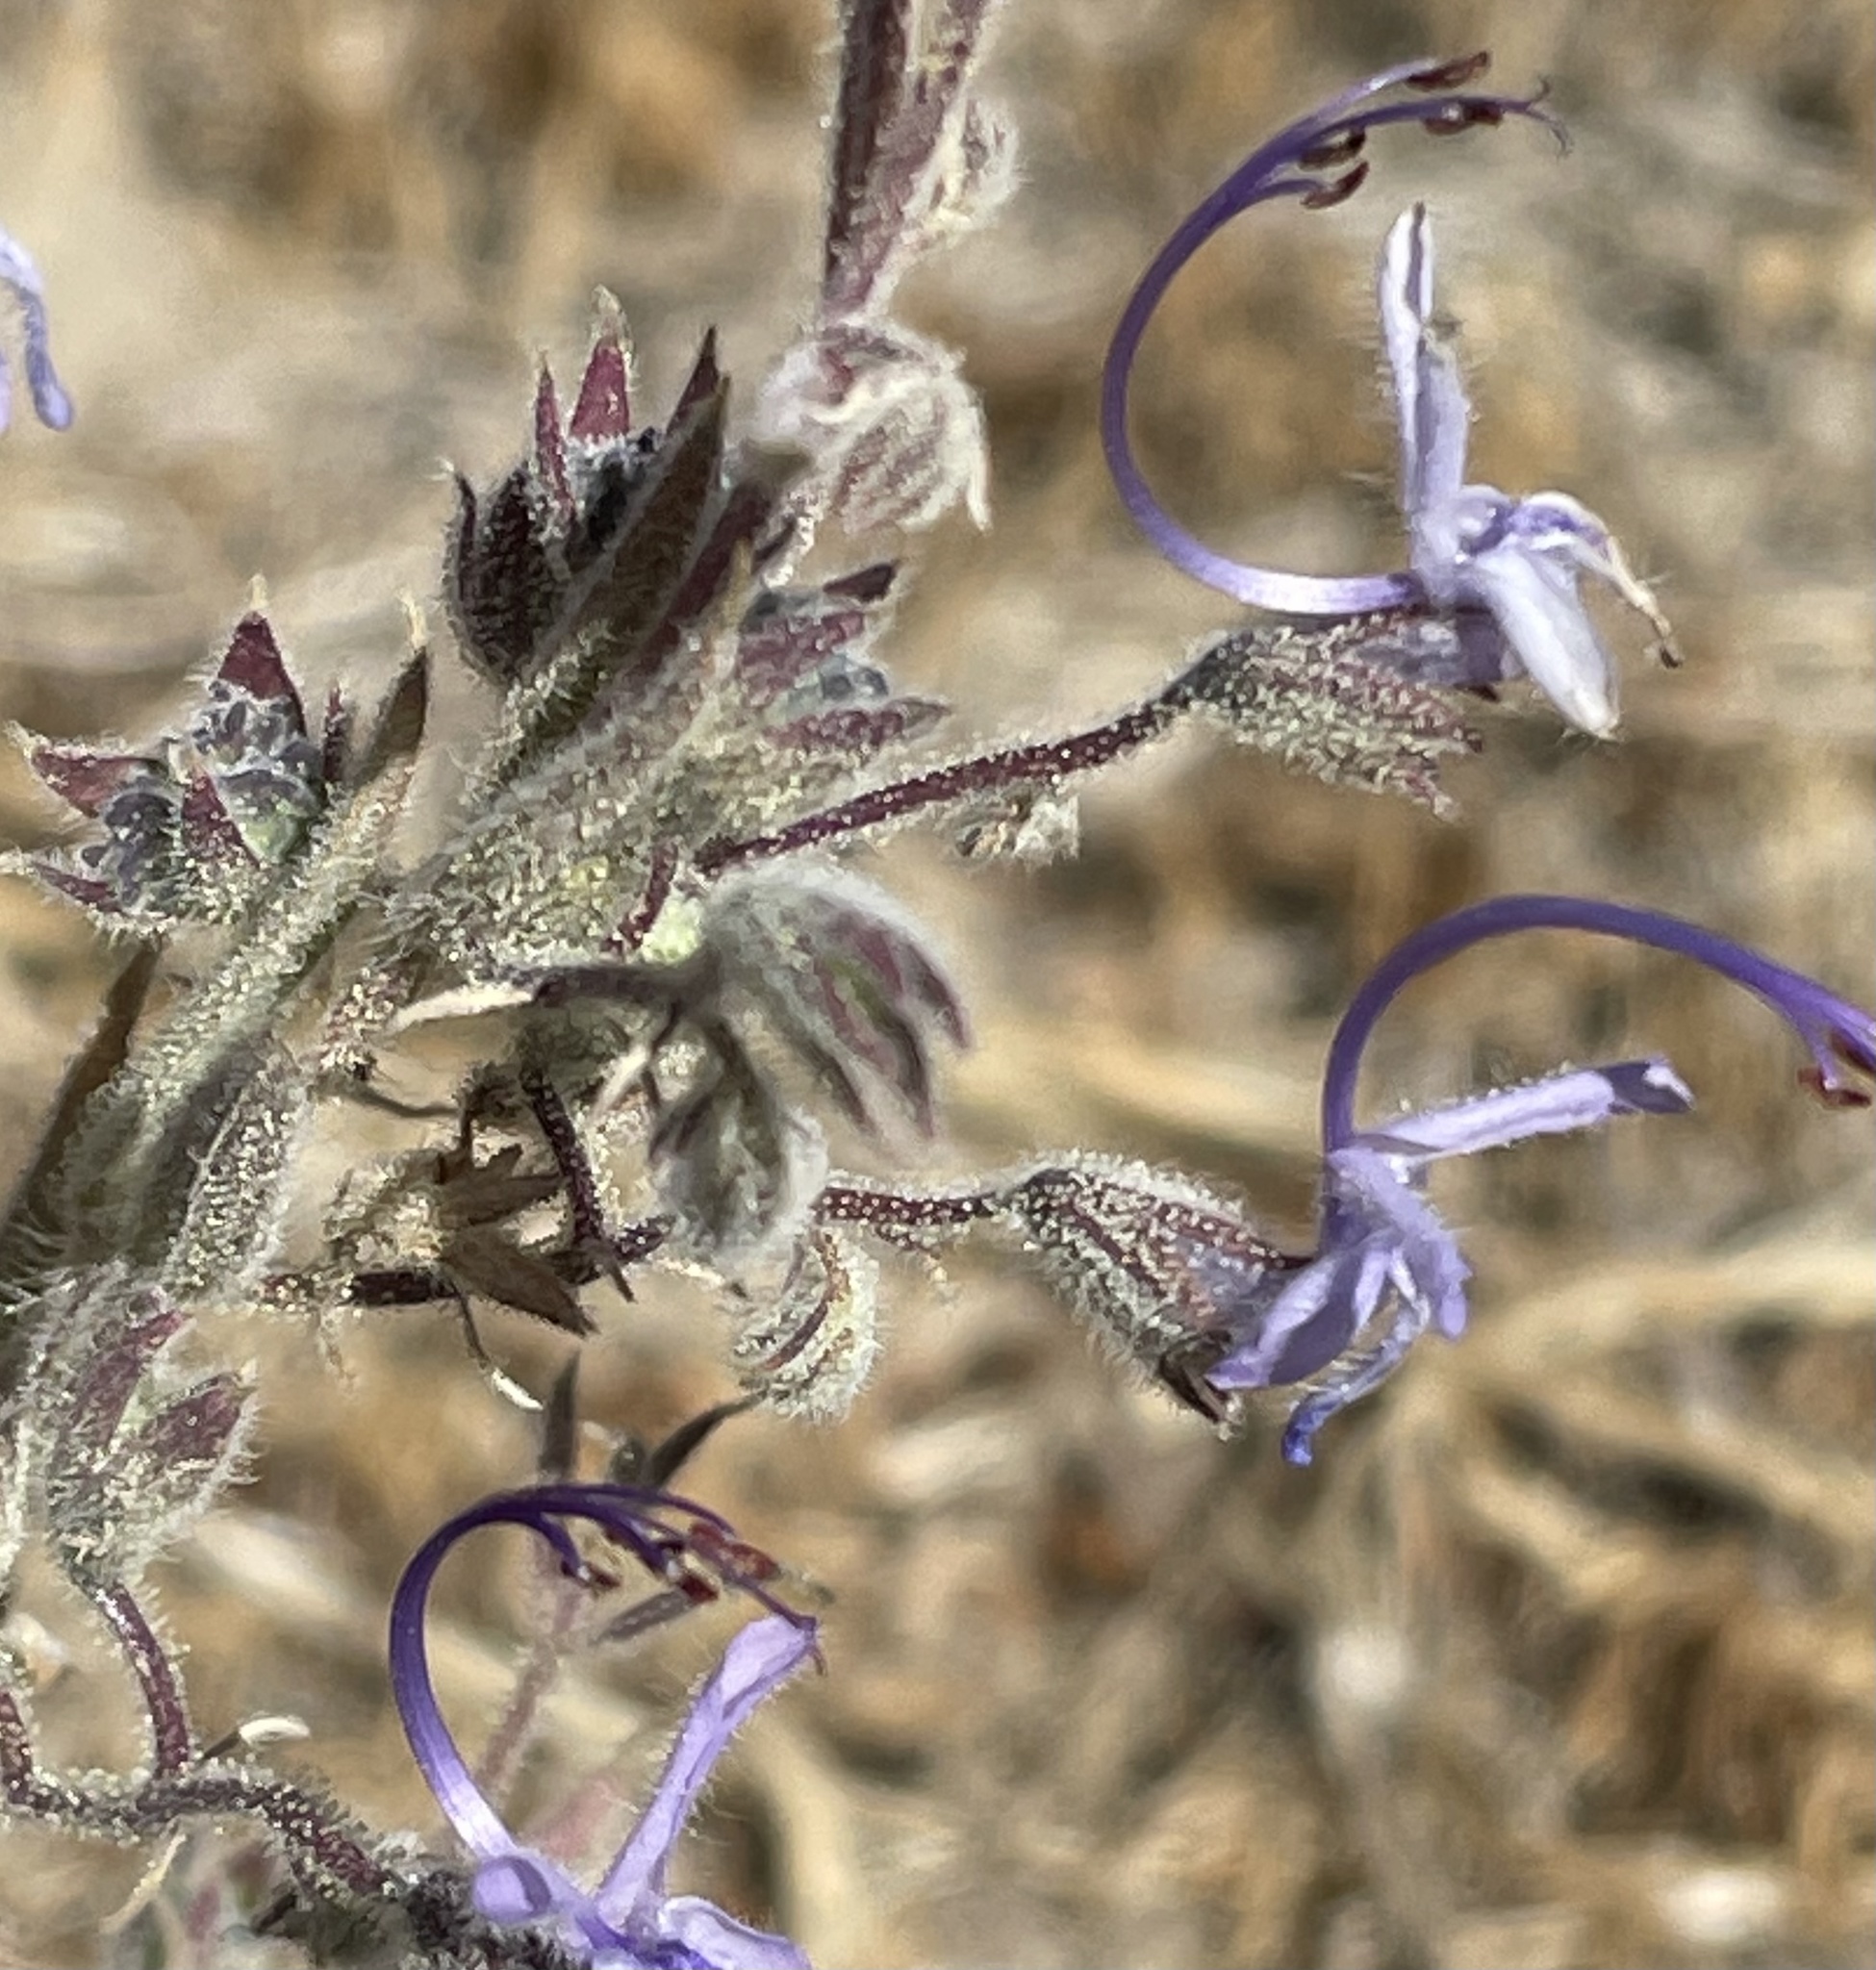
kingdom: Plantae
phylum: Tracheophyta
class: Magnoliopsida
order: Lamiales
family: Lamiaceae
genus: Trichostema
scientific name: Trichostema lanceolatum
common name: Vinegar-weed
